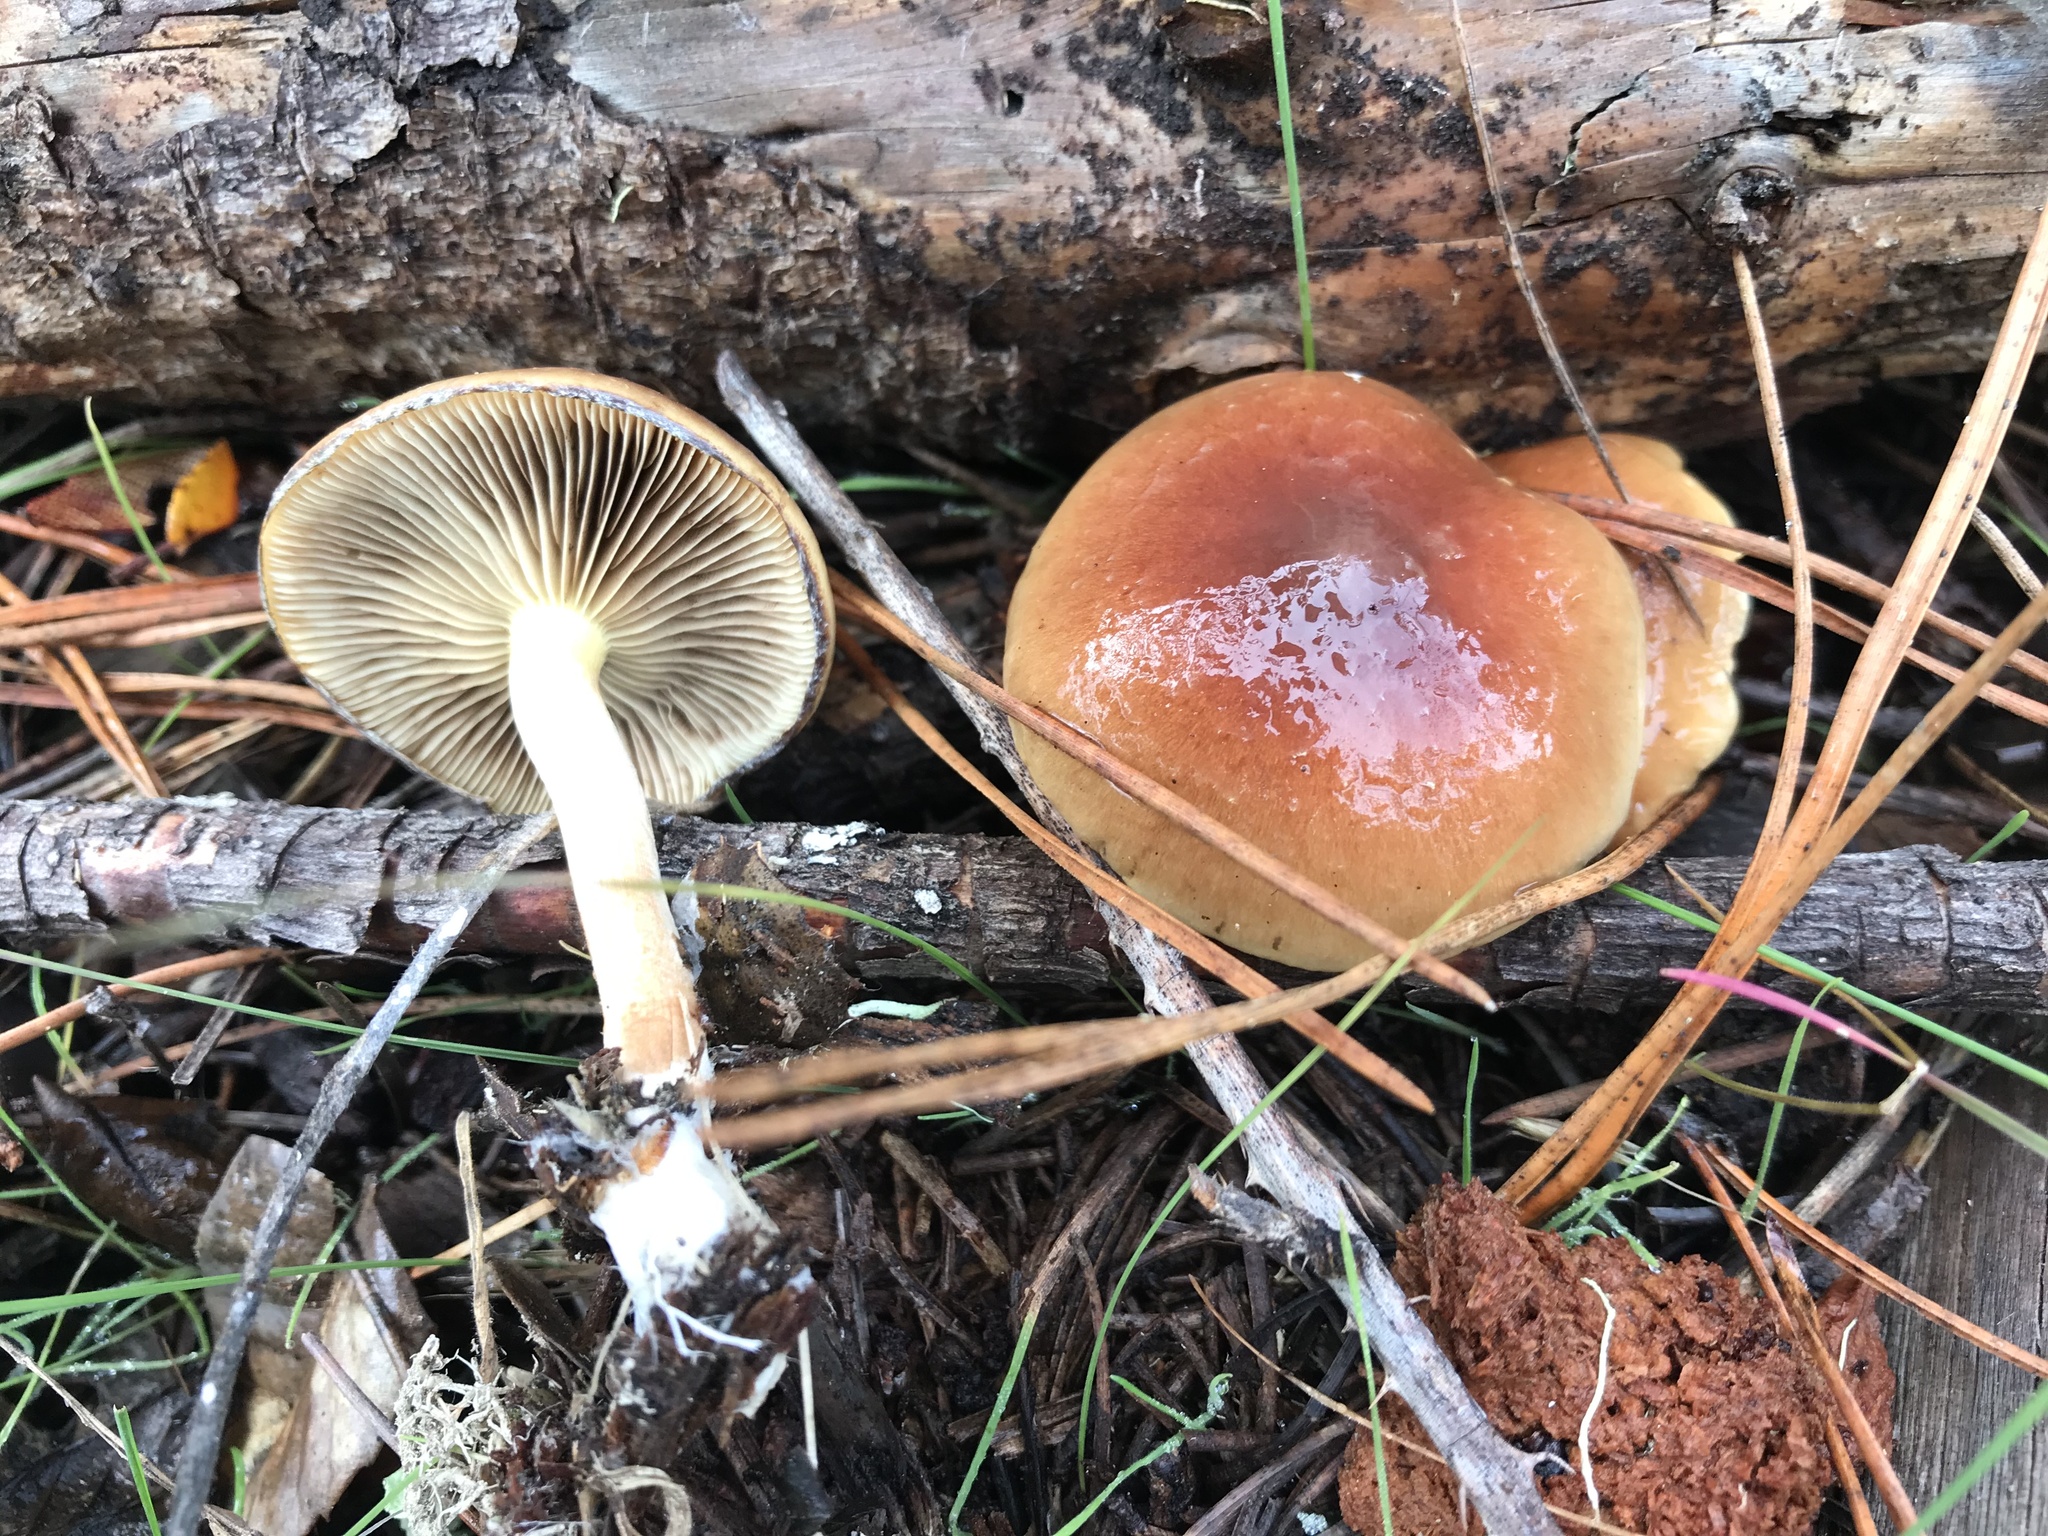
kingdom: Fungi
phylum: Basidiomycota
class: Agaricomycetes
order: Agaricales
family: Strophariaceae
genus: Pholiota
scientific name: Pholiota velaglutinosa
